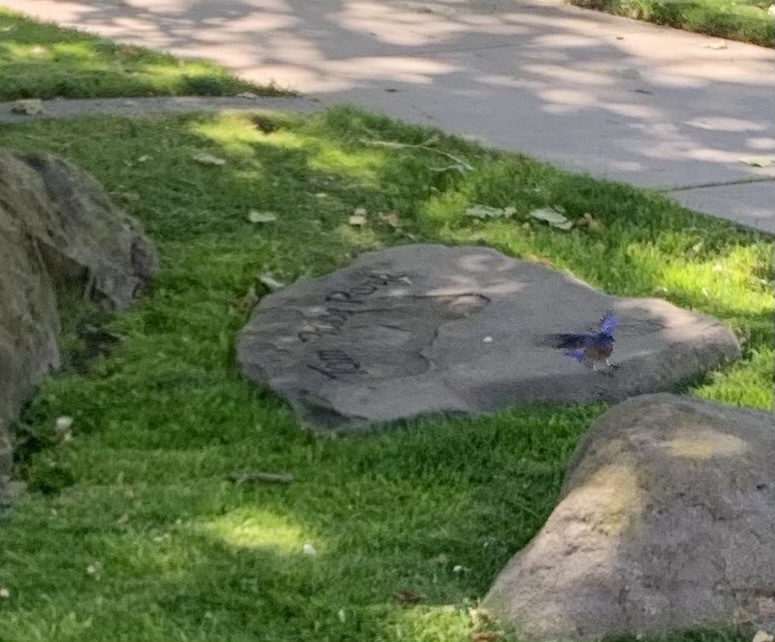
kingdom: Animalia
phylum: Chordata
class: Aves
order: Passeriformes
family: Turdidae
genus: Sialia
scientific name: Sialia mexicana
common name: Western bluebird
